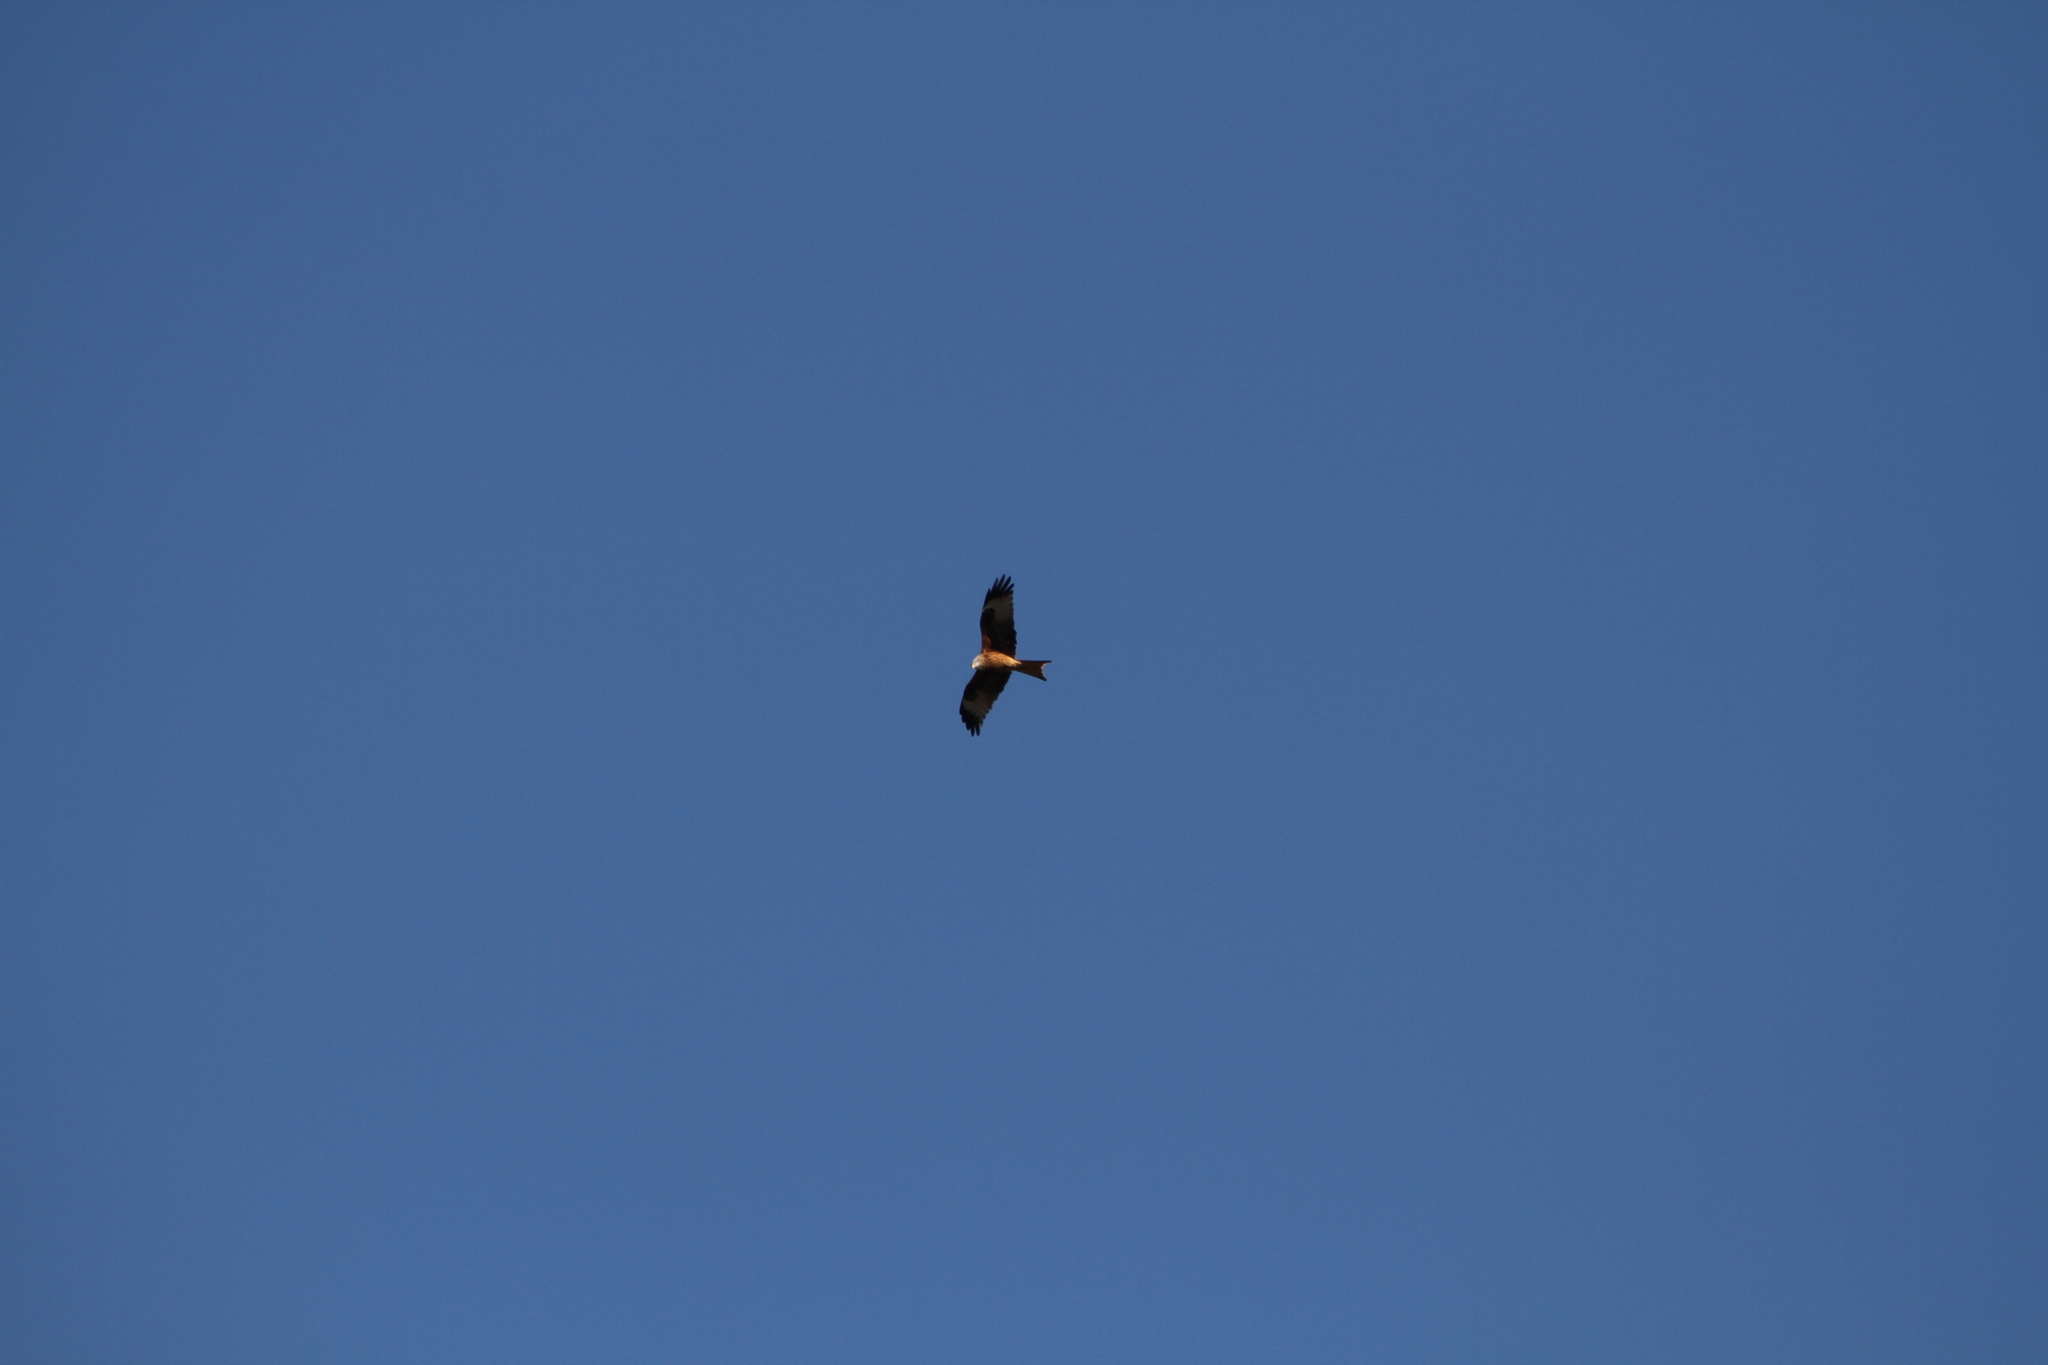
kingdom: Animalia
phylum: Chordata
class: Aves
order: Accipitriformes
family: Accipitridae
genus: Milvus
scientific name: Milvus milvus
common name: Red kite
